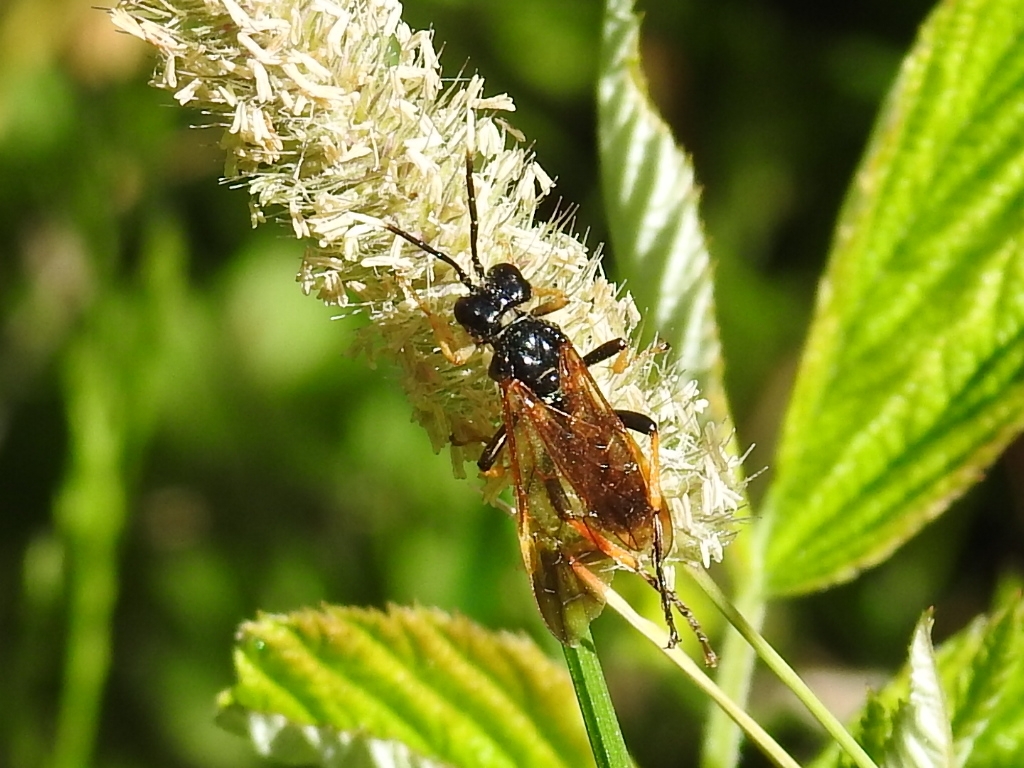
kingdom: Animalia
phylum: Arthropoda
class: Insecta
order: Hymenoptera
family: Tenthredinidae
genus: Tenthredo
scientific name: Tenthredo crassa
